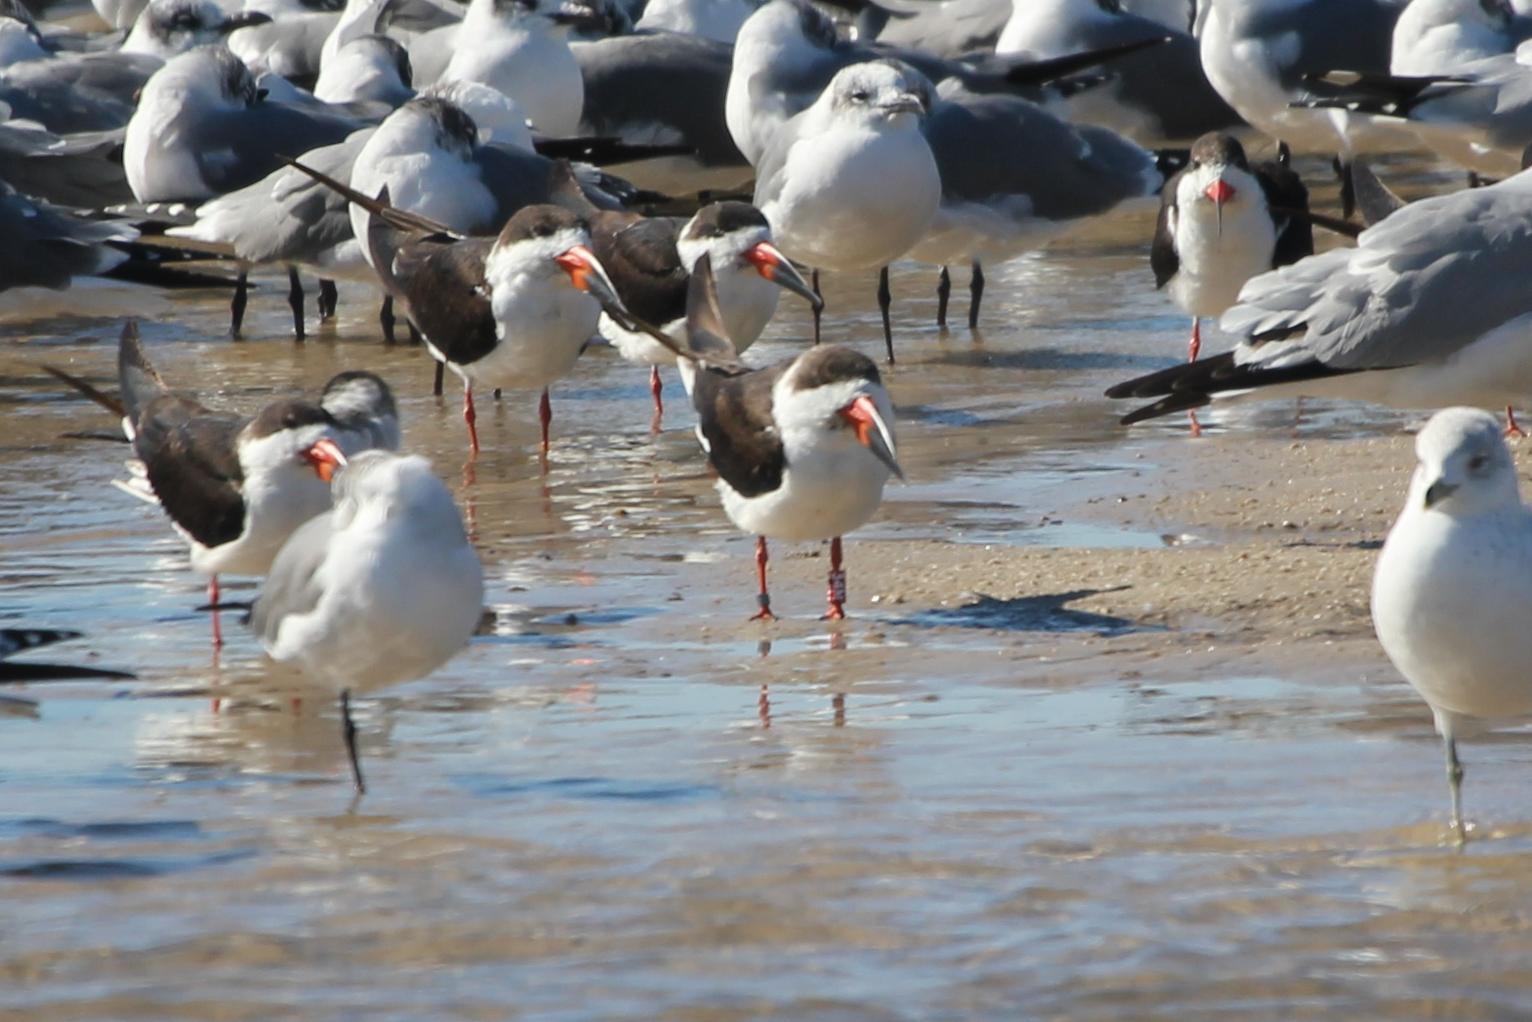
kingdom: Animalia
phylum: Chordata
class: Aves
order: Charadriiformes
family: Laridae
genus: Rynchops
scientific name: Rynchops niger
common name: Black skimmer
